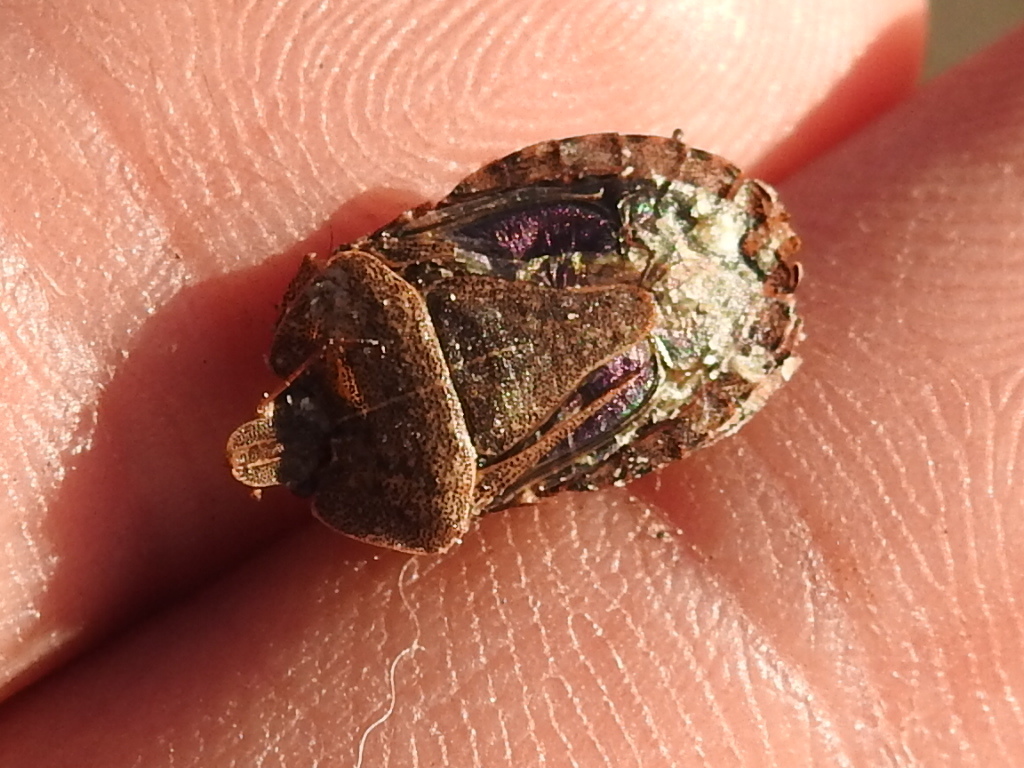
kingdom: Animalia
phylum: Arthropoda
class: Insecta
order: Hemiptera
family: Pentatomidae
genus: Menecles
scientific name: Menecles insertus
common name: Elf shoe stink bug
